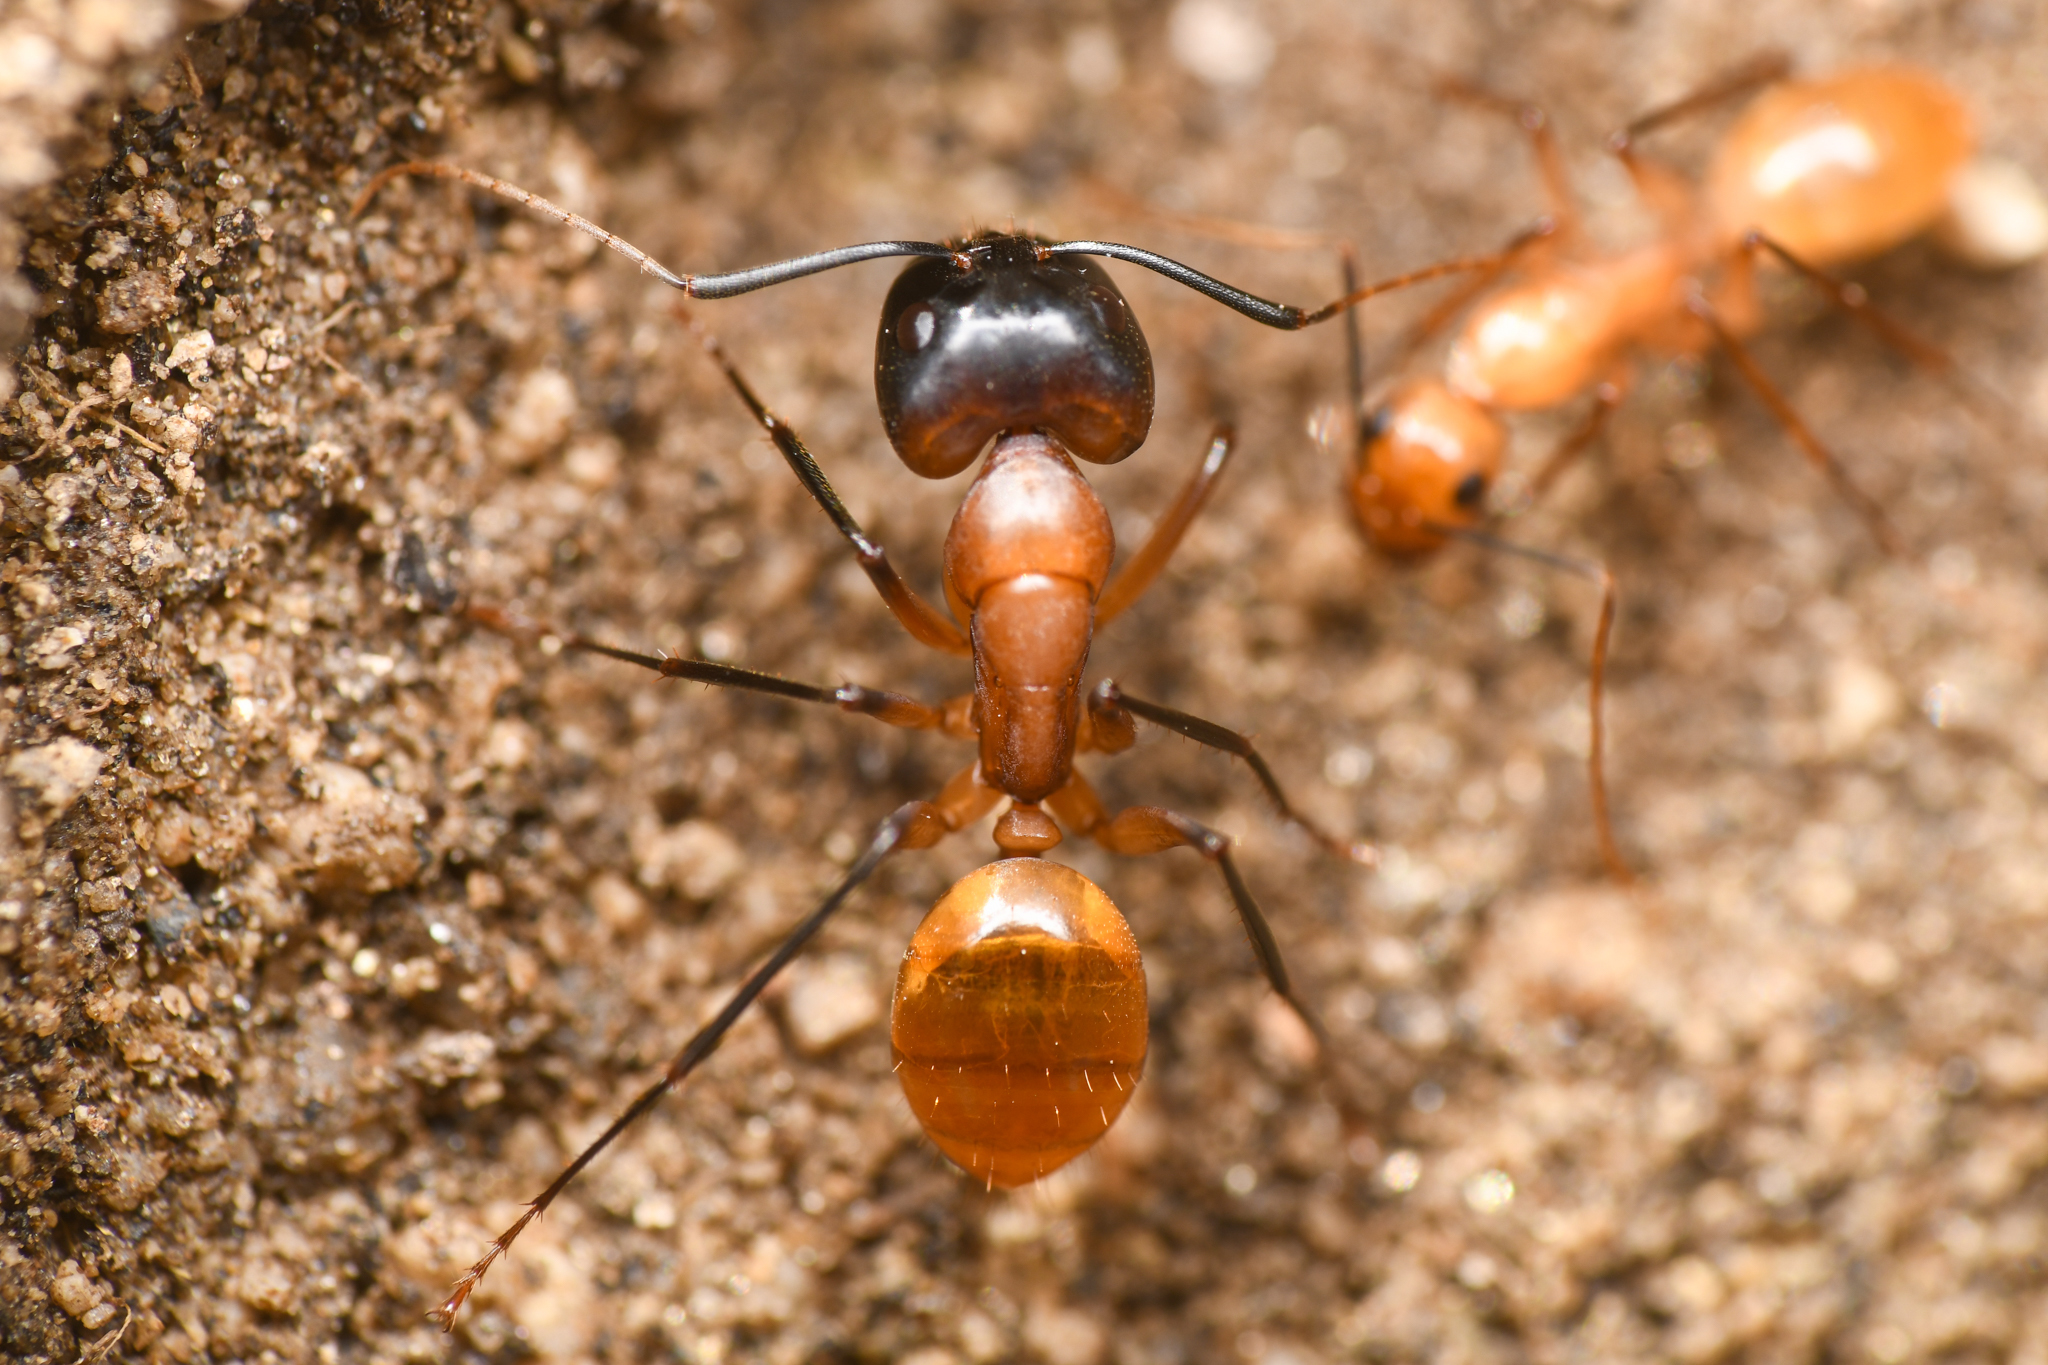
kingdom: Animalia
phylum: Arthropoda
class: Insecta
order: Hymenoptera
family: Formicidae
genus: Camponotus
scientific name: Camponotus ocreatus
